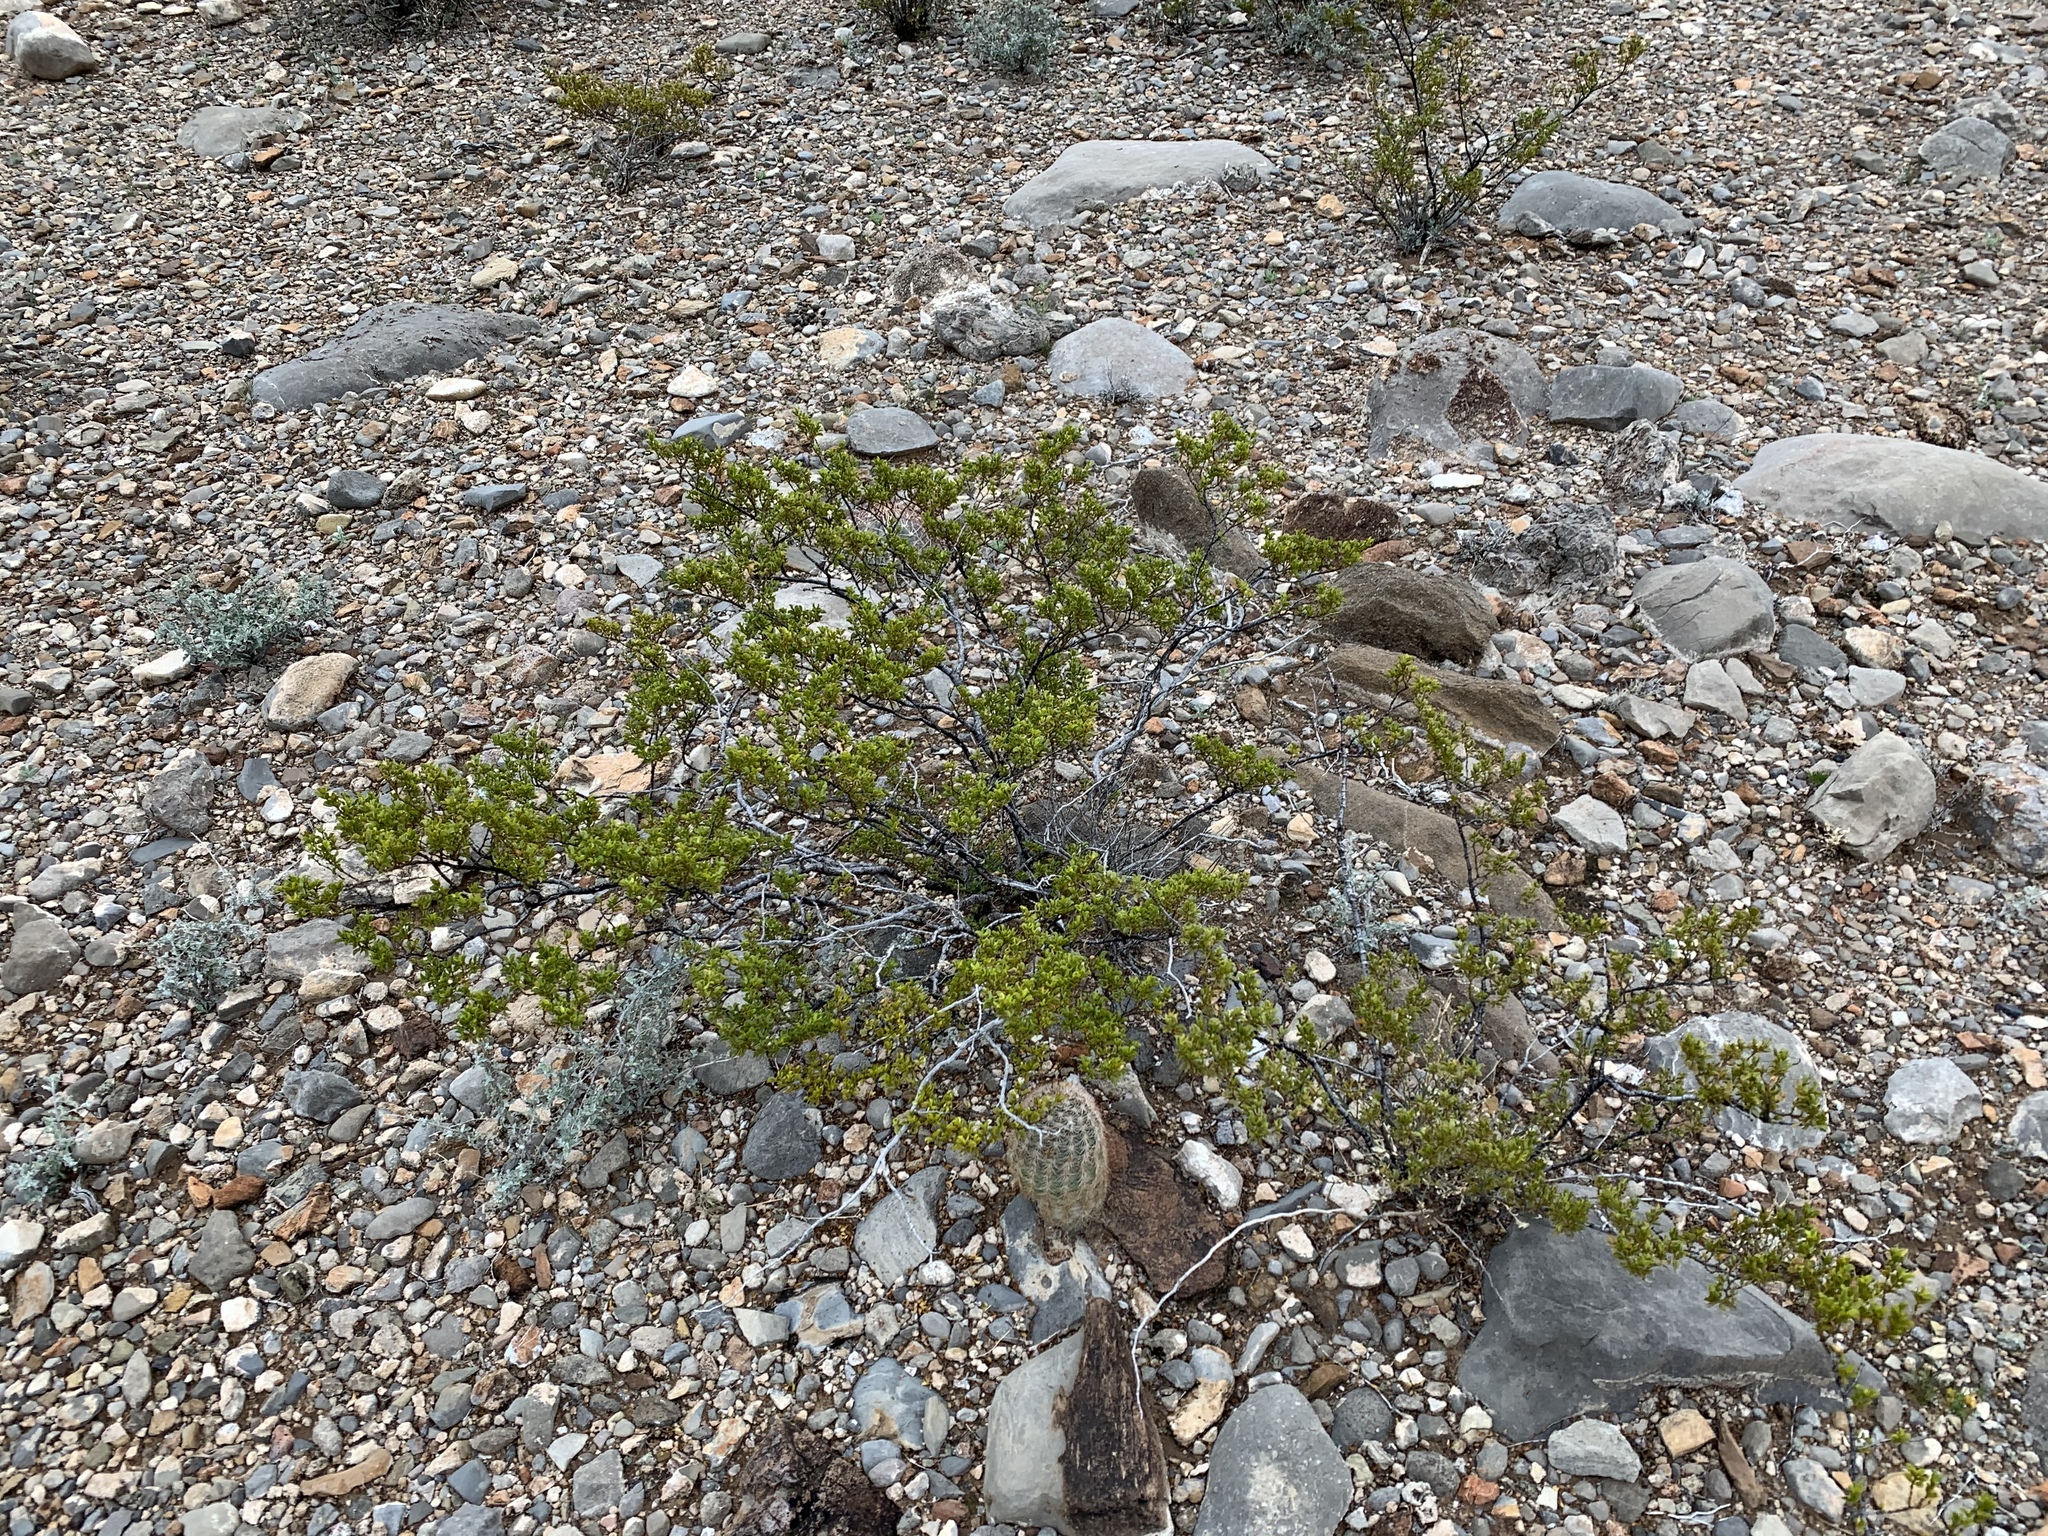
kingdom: Plantae
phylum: Tracheophyta
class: Magnoliopsida
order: Zygophyllales
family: Zygophyllaceae
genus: Larrea
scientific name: Larrea tridentata
